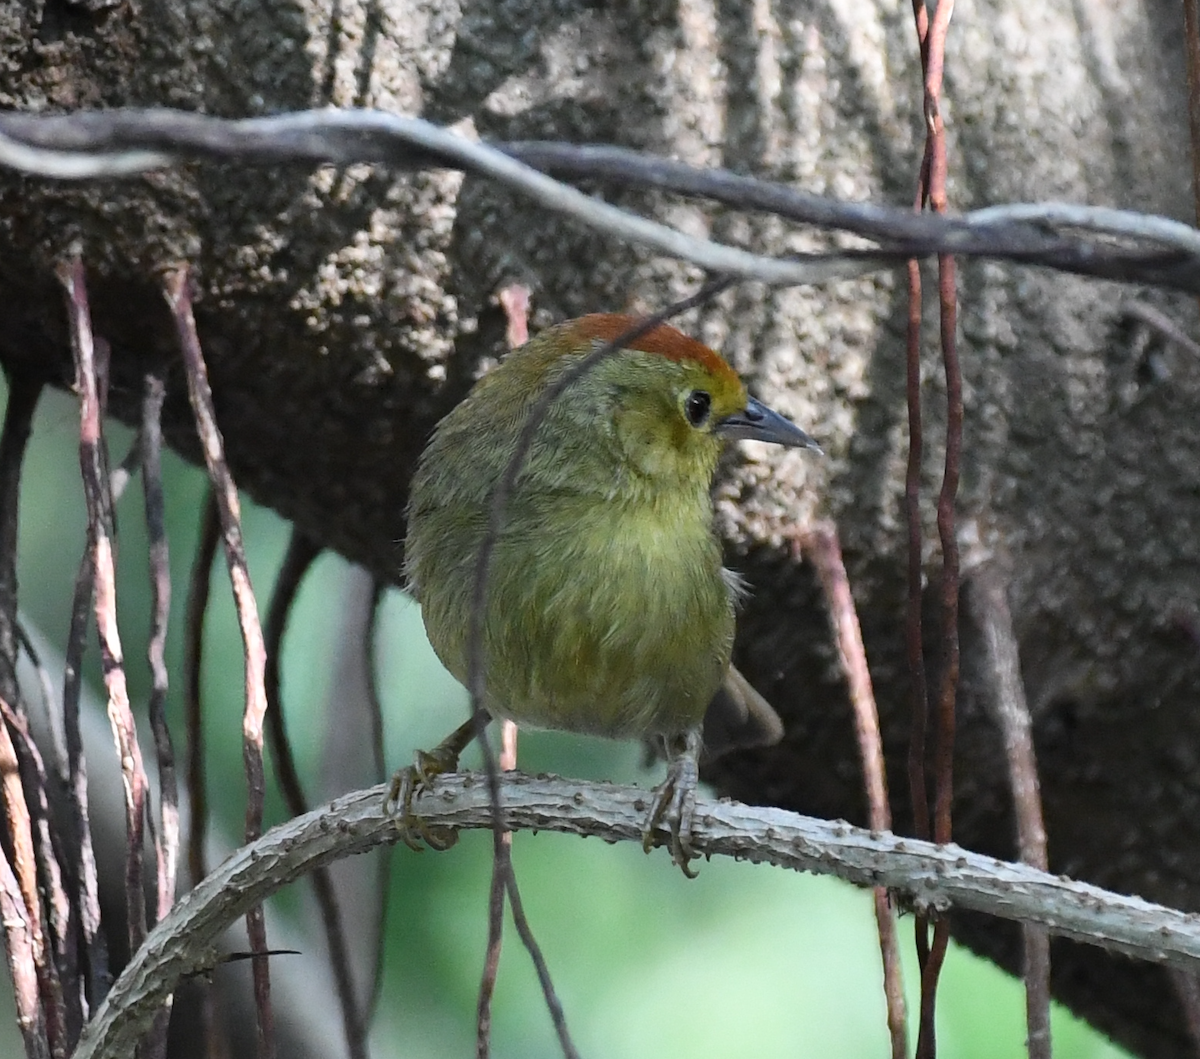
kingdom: Animalia
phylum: Chordata
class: Aves
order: Passeriformes
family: Timaliidae
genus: Stachyridopsis
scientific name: Stachyridopsis ruficeps
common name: Rufous-capped babbler
